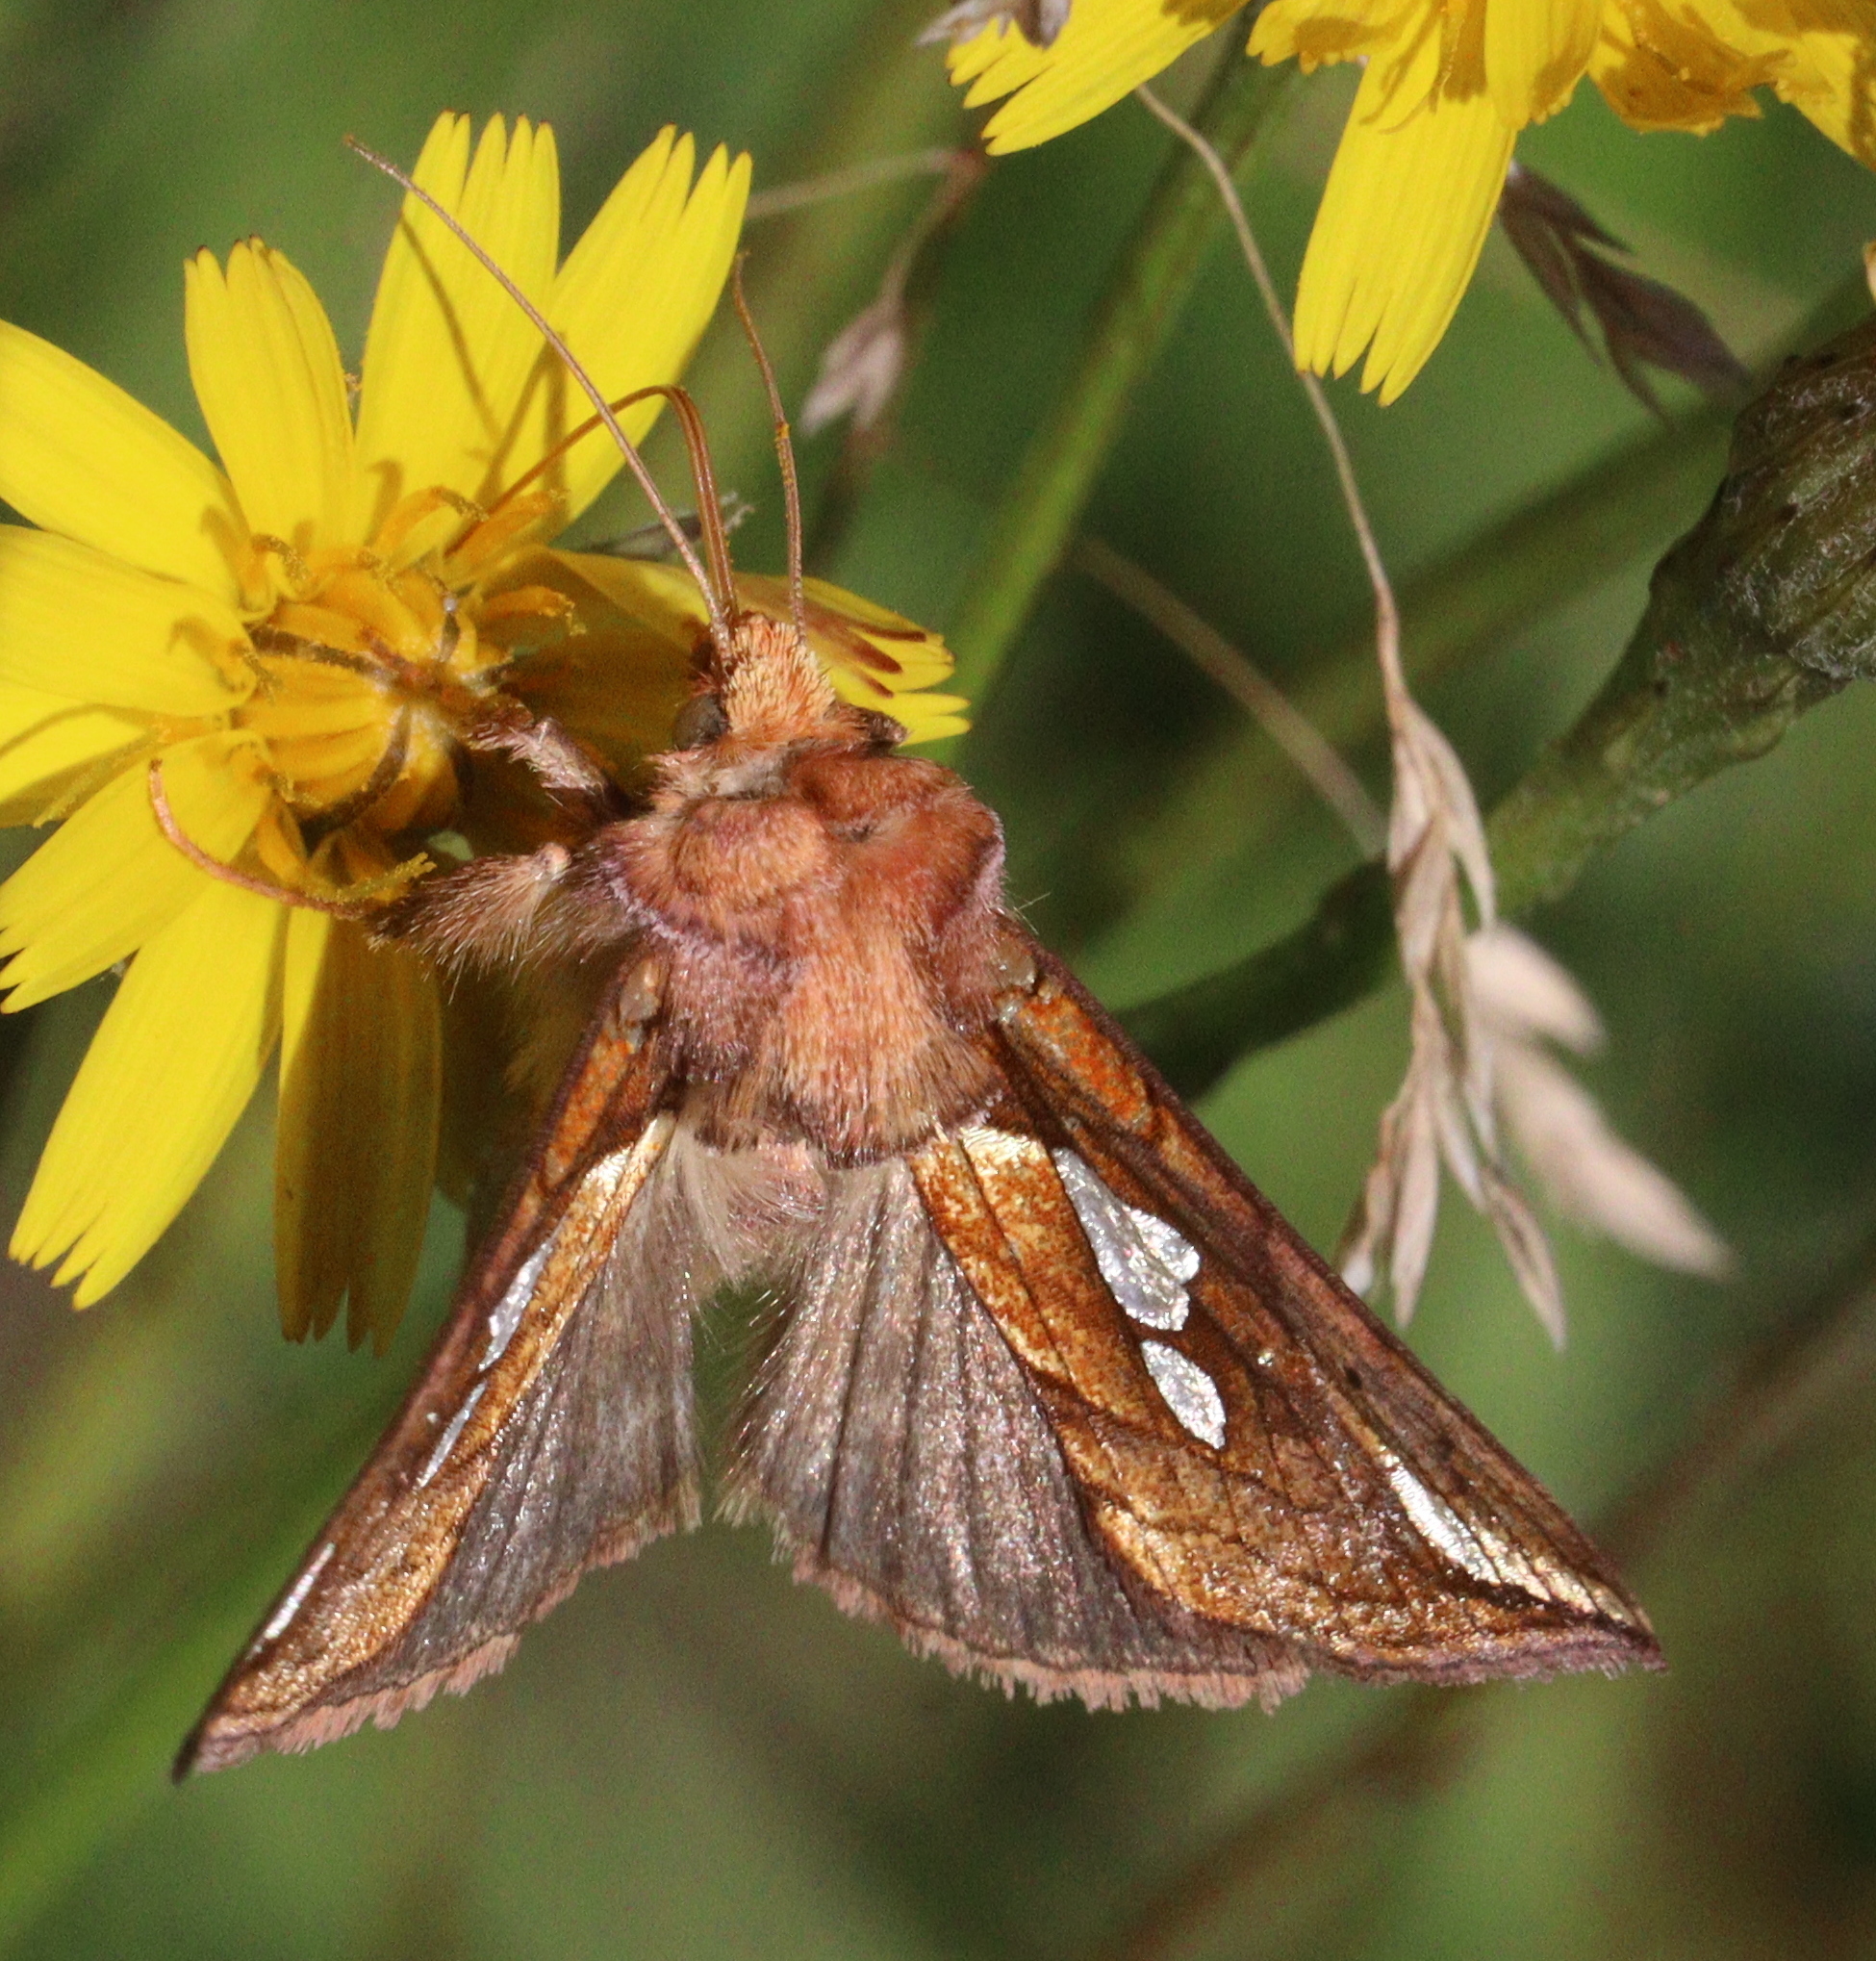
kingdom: Animalia
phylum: Arthropoda
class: Insecta
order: Lepidoptera
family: Noctuidae
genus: Plusia
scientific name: Plusia putnami
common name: Lempke's gold spot
